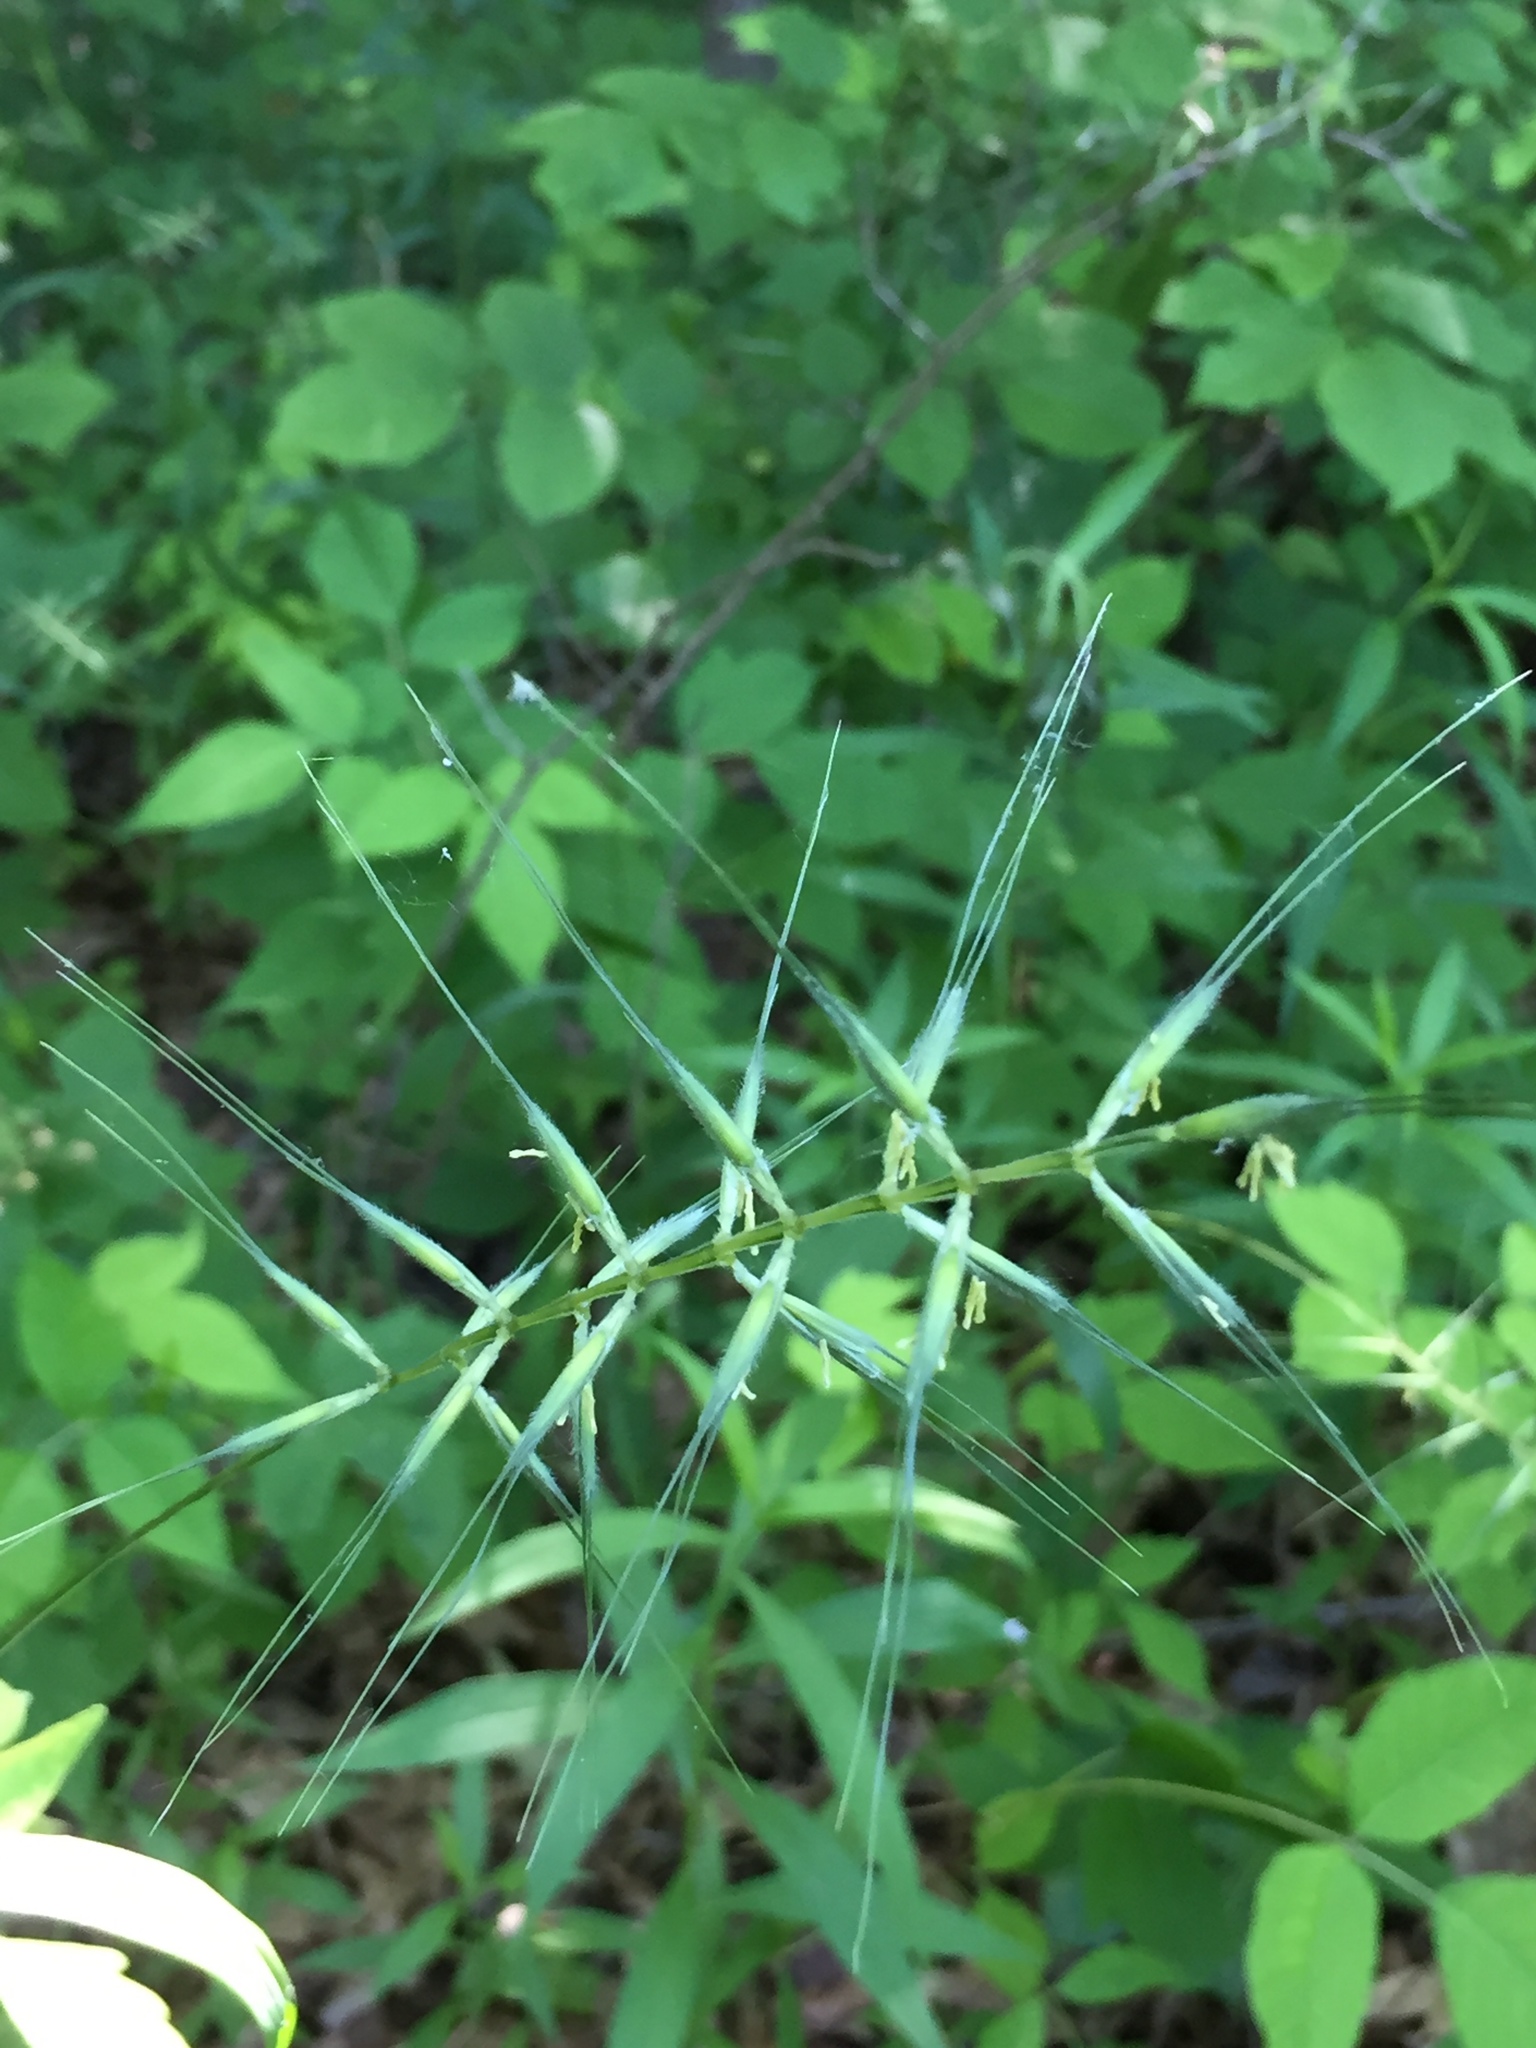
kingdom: Plantae
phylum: Tracheophyta
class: Liliopsida
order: Poales
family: Poaceae
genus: Elymus
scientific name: Elymus hystrix
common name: Bottlebrush grass
